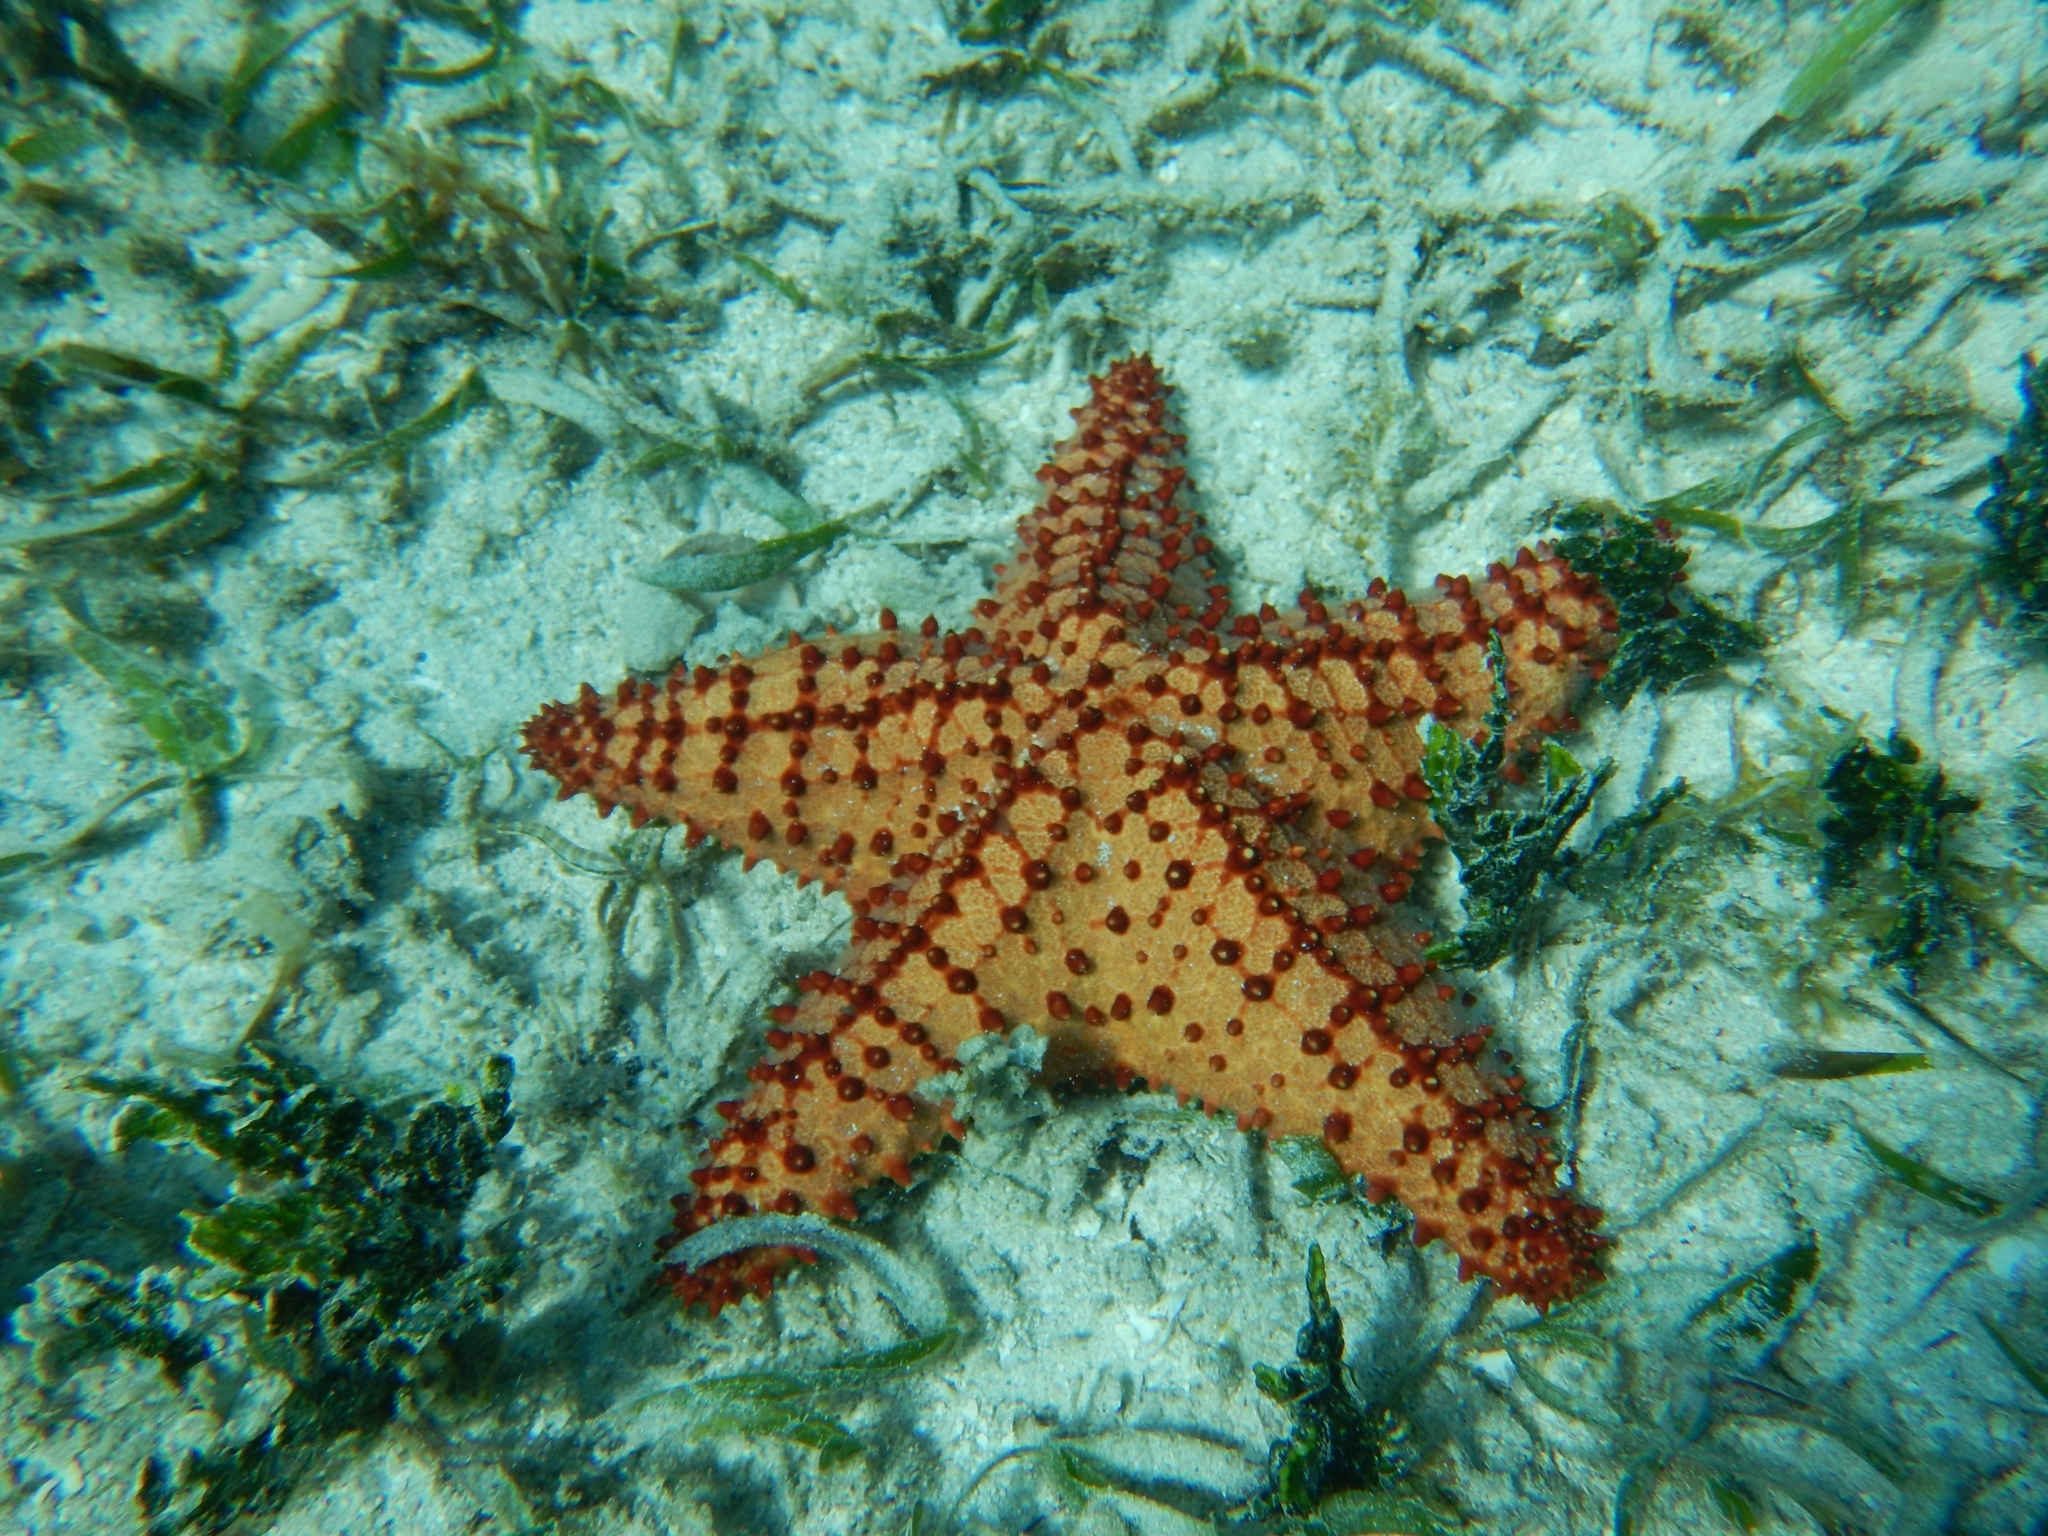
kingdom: Animalia
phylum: Echinodermata
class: Asteroidea
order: Valvatida
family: Oreasteridae
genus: Oreaster
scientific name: Oreaster reticulatus
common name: Cushion sea star
